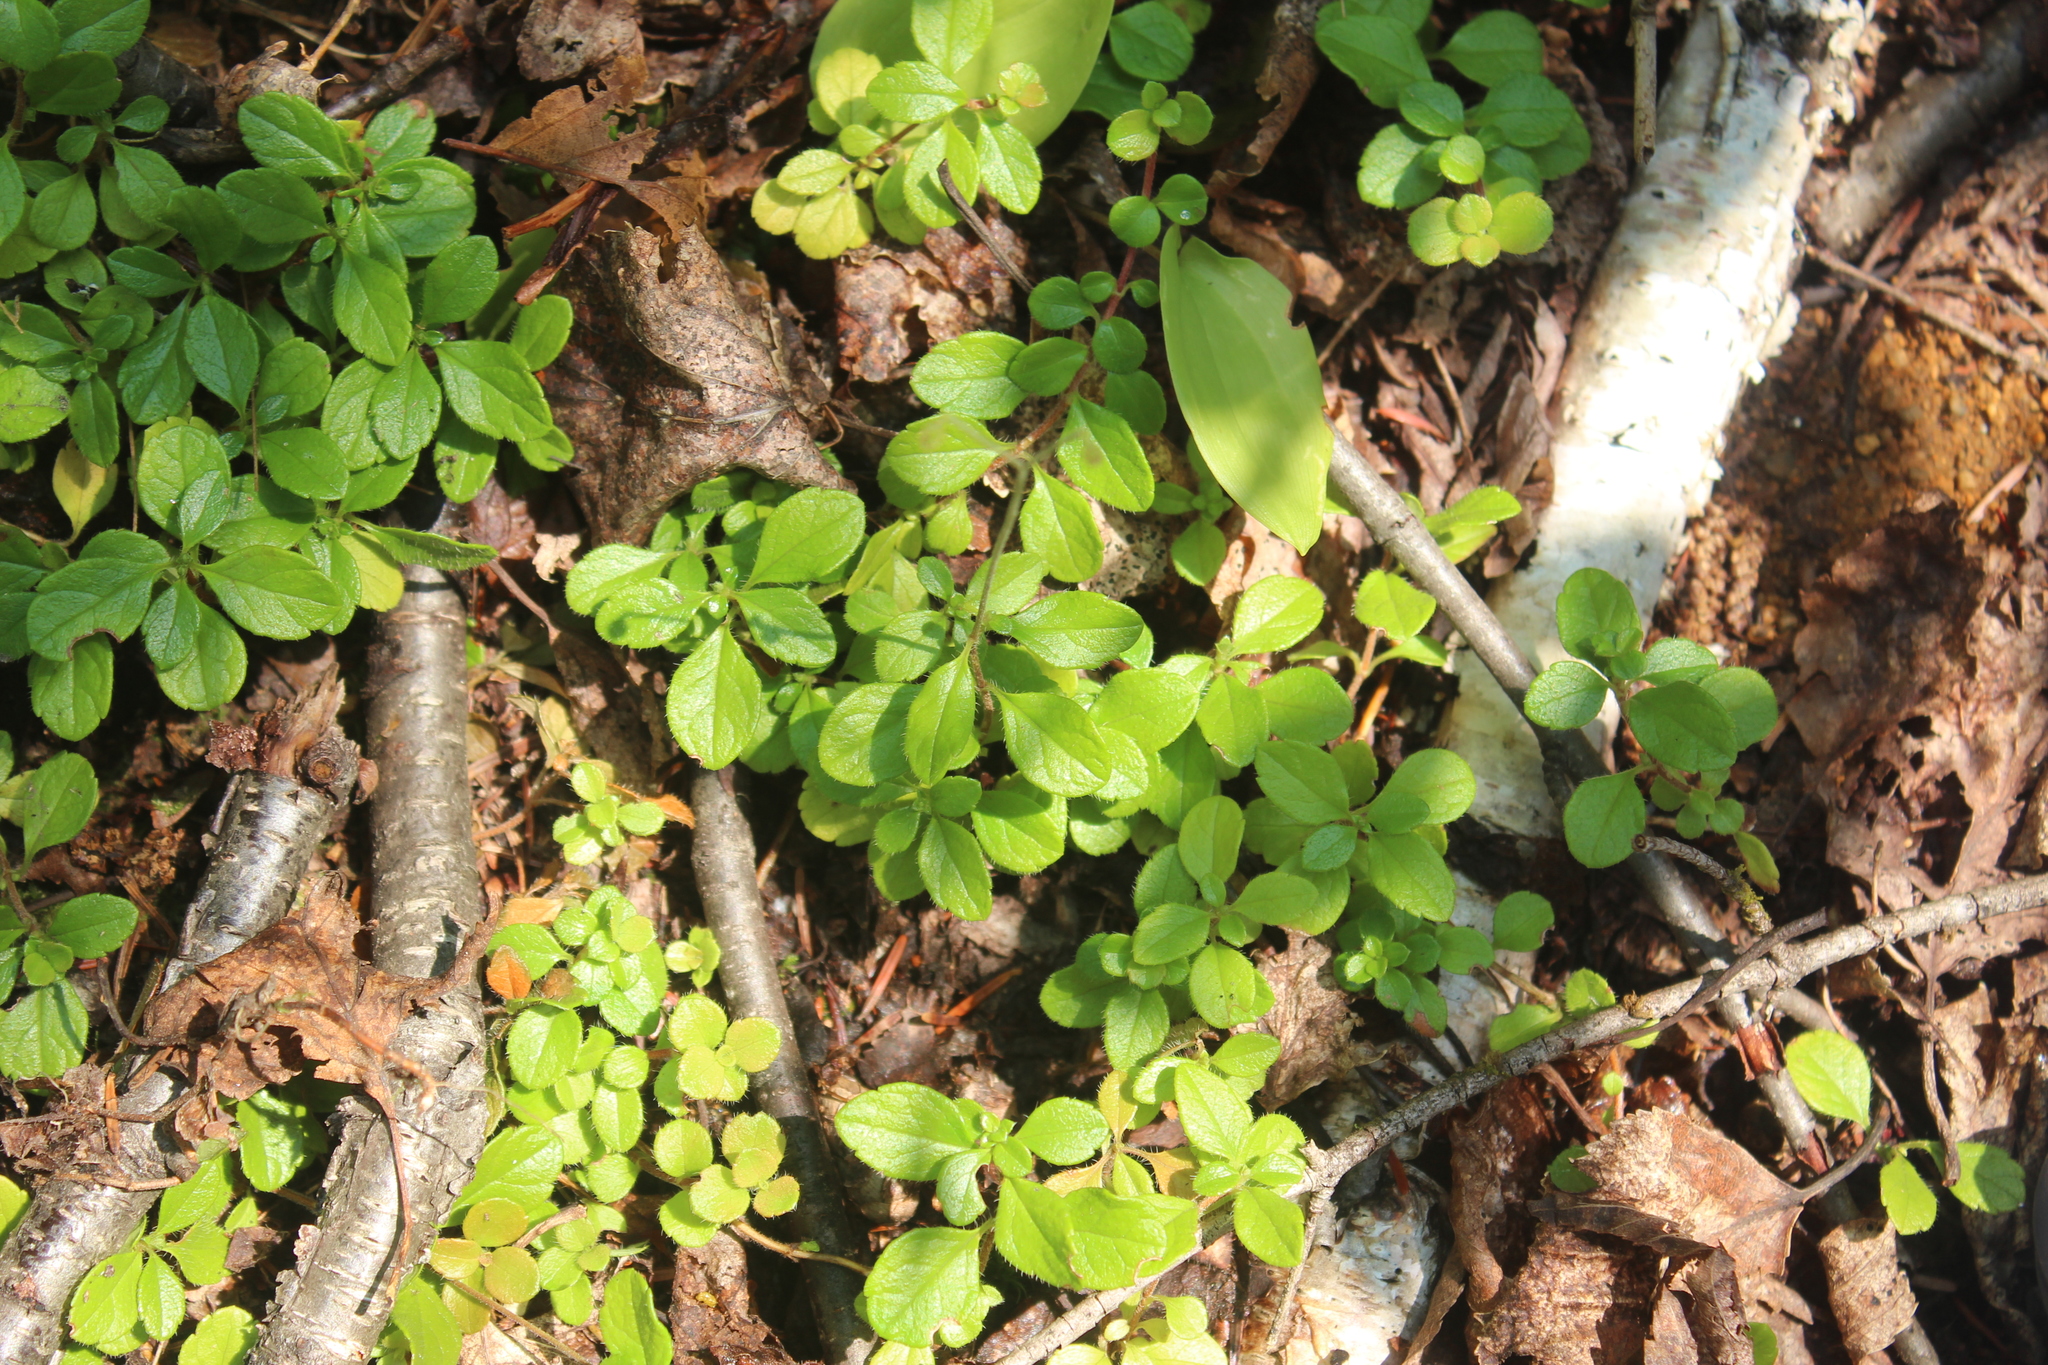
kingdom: Plantae
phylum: Tracheophyta
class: Magnoliopsida
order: Dipsacales
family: Caprifoliaceae
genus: Linnaea
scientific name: Linnaea borealis
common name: Twinflower
